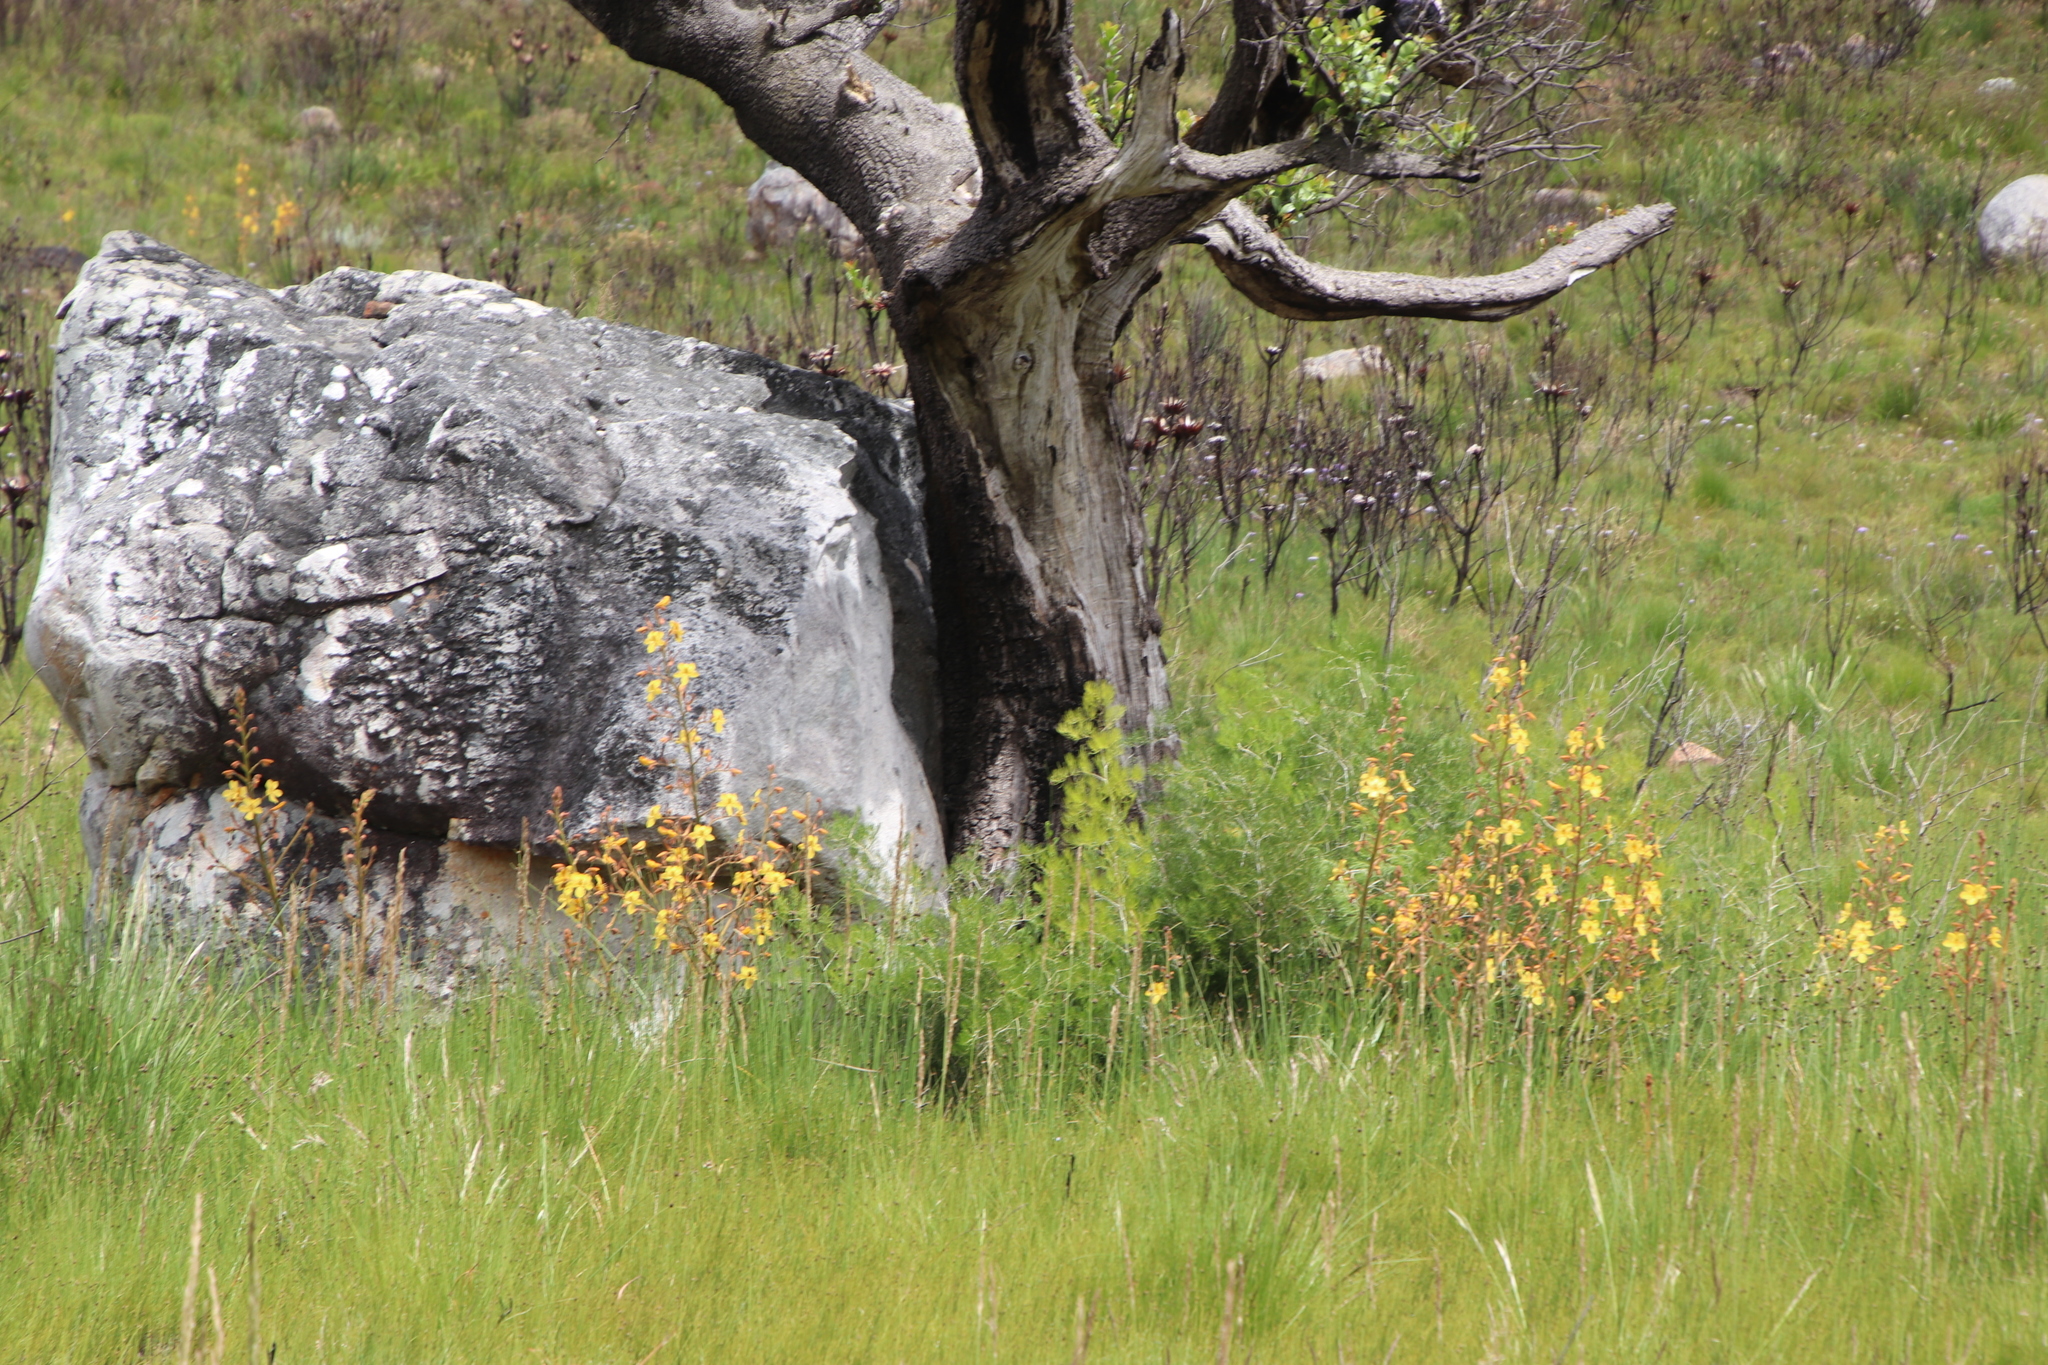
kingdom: Plantae
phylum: Tracheophyta
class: Liliopsida
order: Commelinales
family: Haemodoraceae
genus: Wachendorfia
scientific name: Wachendorfia paniculata
